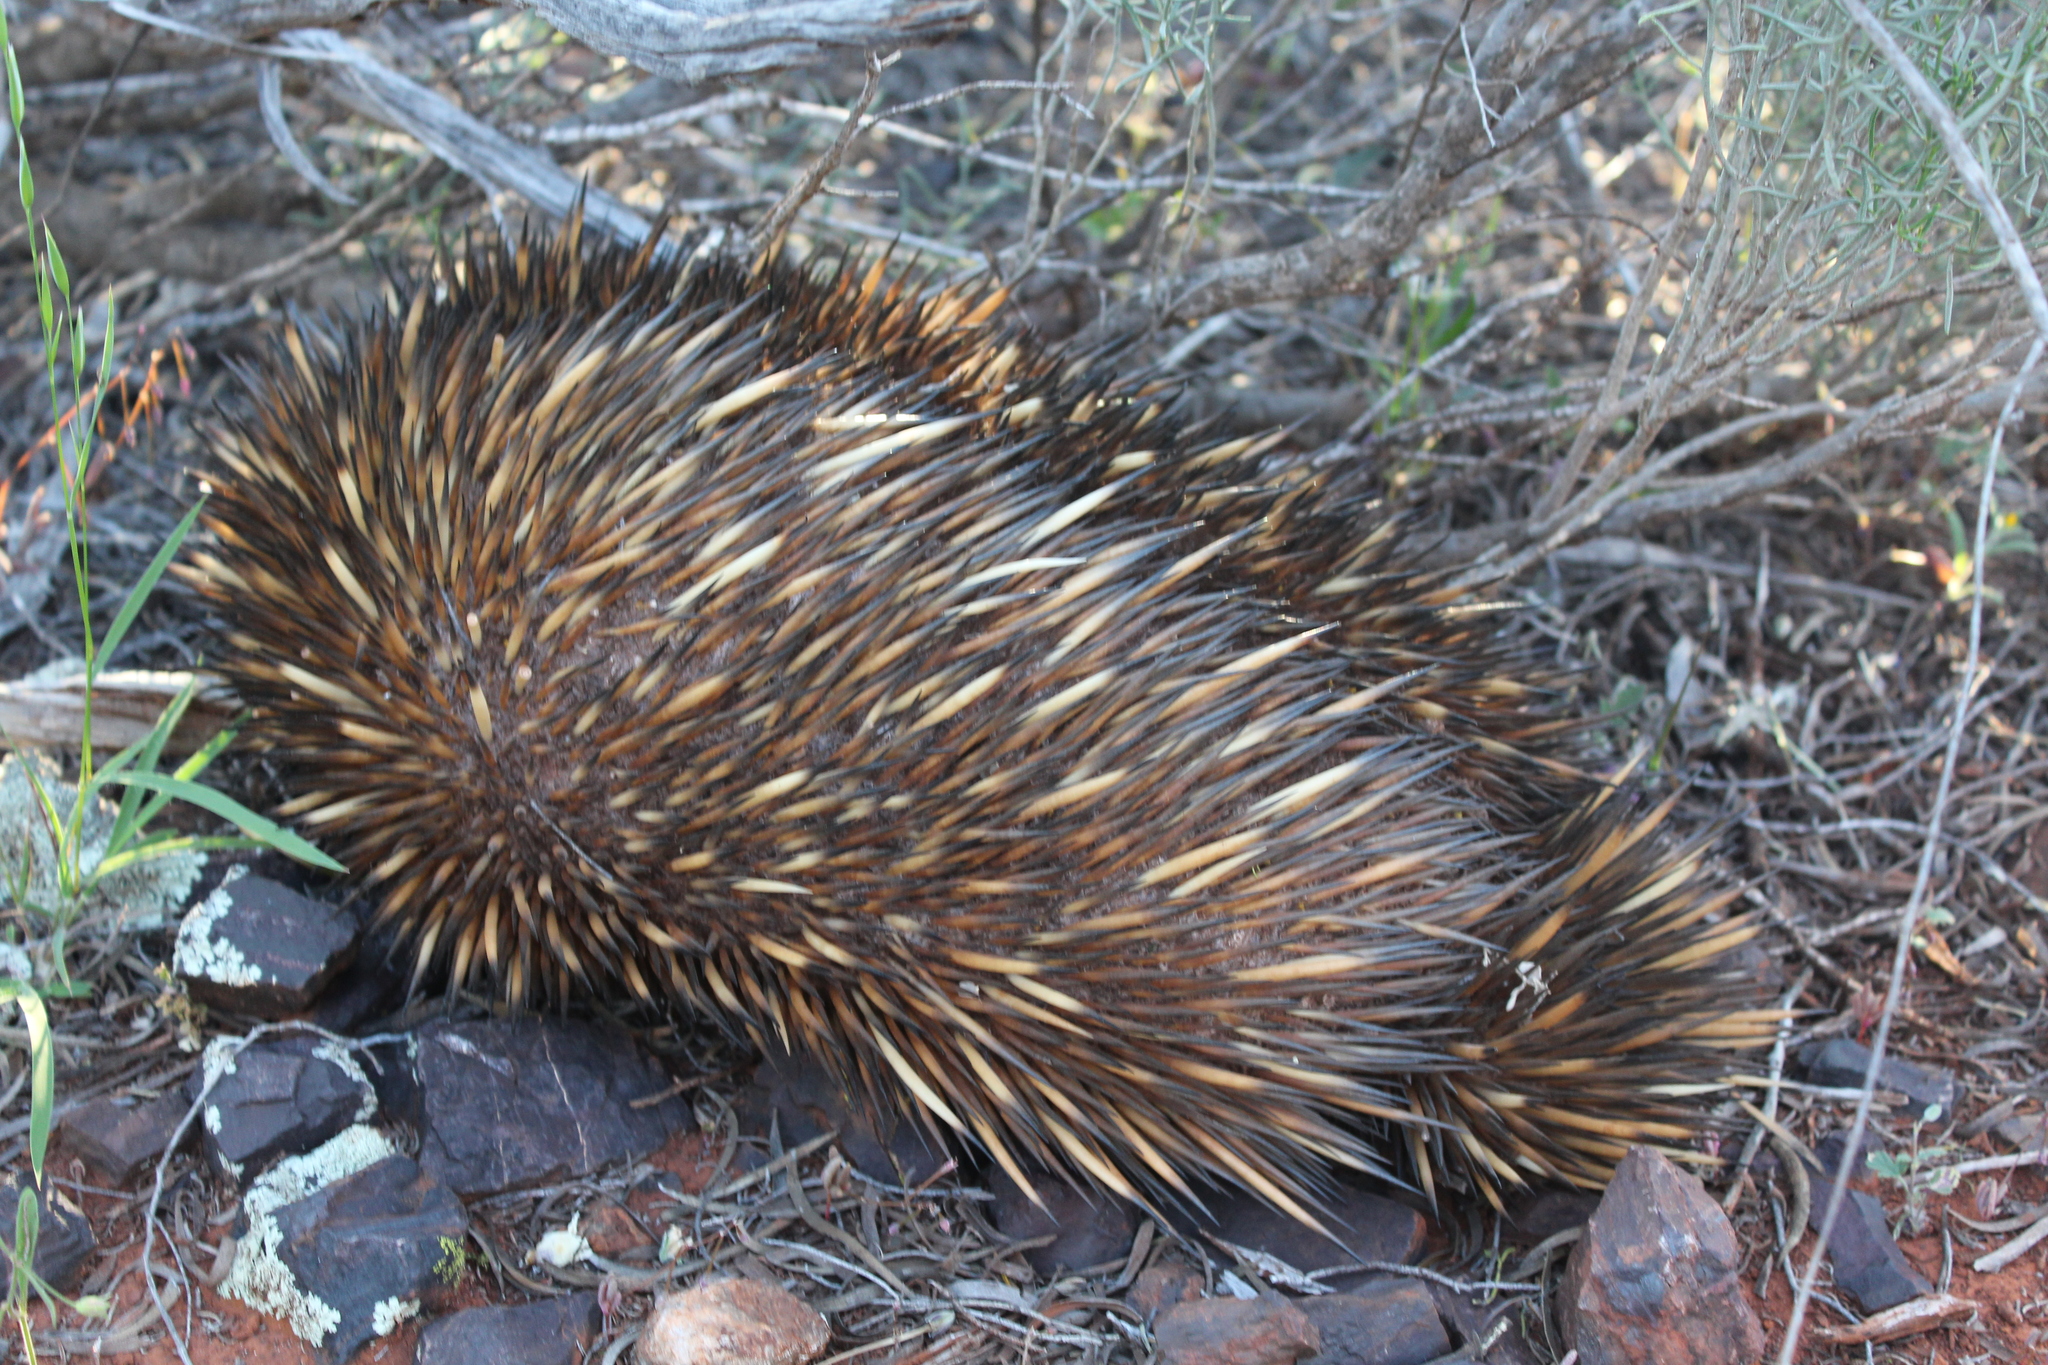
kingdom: Animalia
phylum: Chordata
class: Mammalia
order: Monotremata
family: Tachyglossidae
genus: Tachyglossus
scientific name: Tachyglossus aculeatus
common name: Short-beaked echidna
